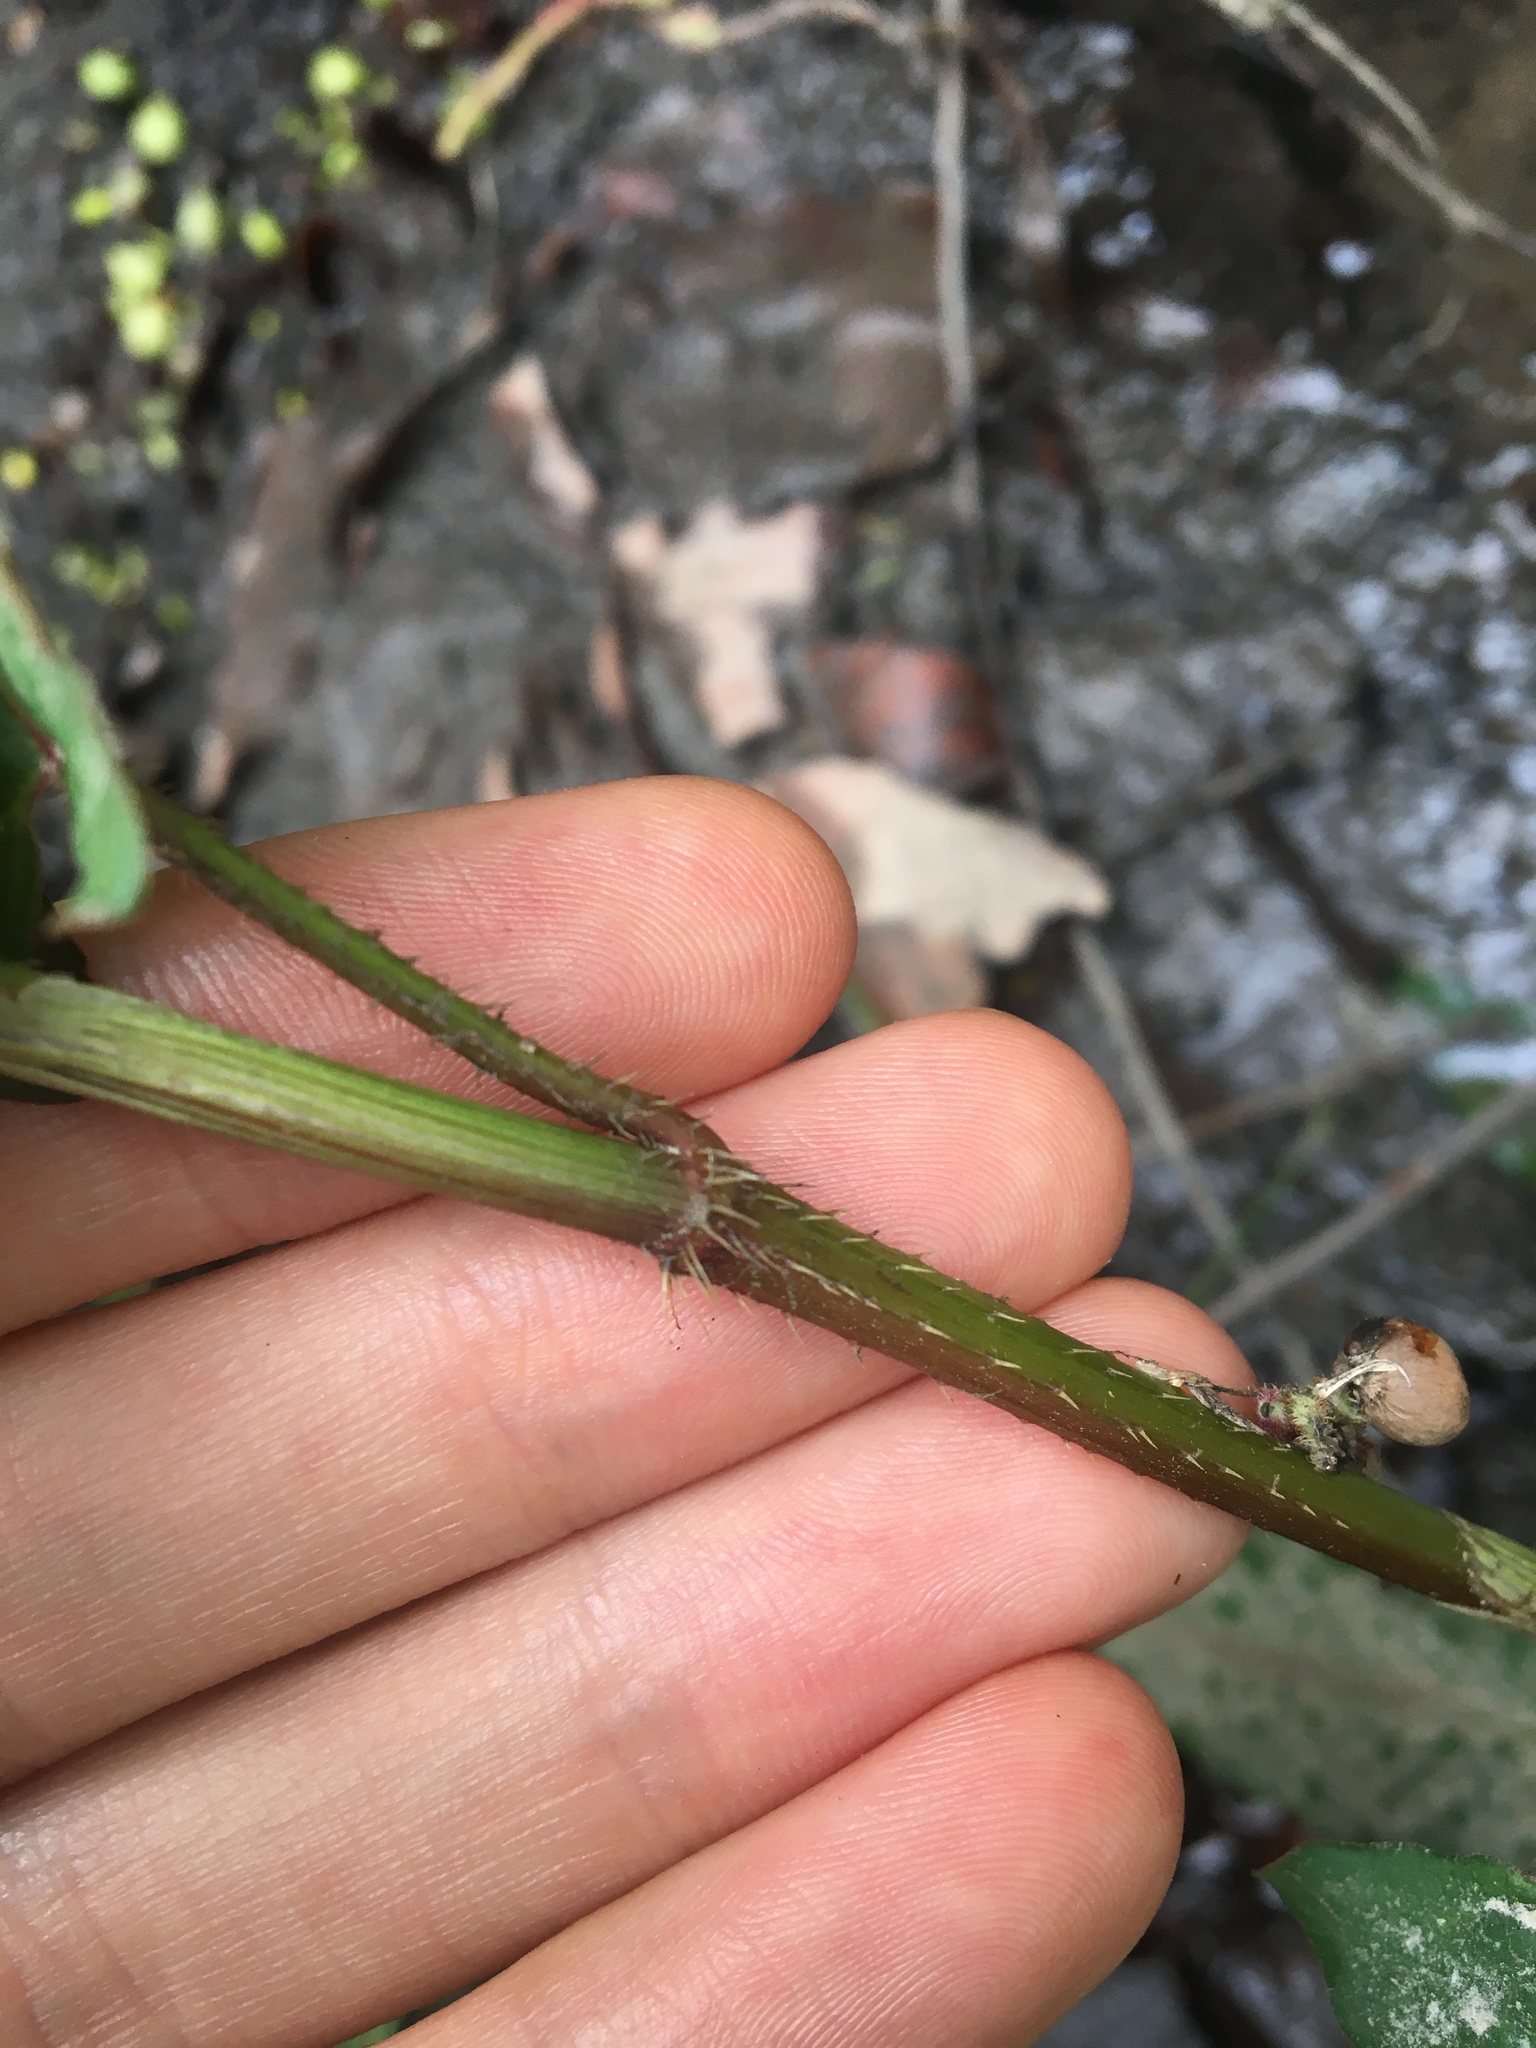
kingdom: Plantae
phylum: Tracheophyta
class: Magnoliopsida
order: Caryophyllales
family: Polygonaceae
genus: Persicaria
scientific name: Persicaria strigosa
